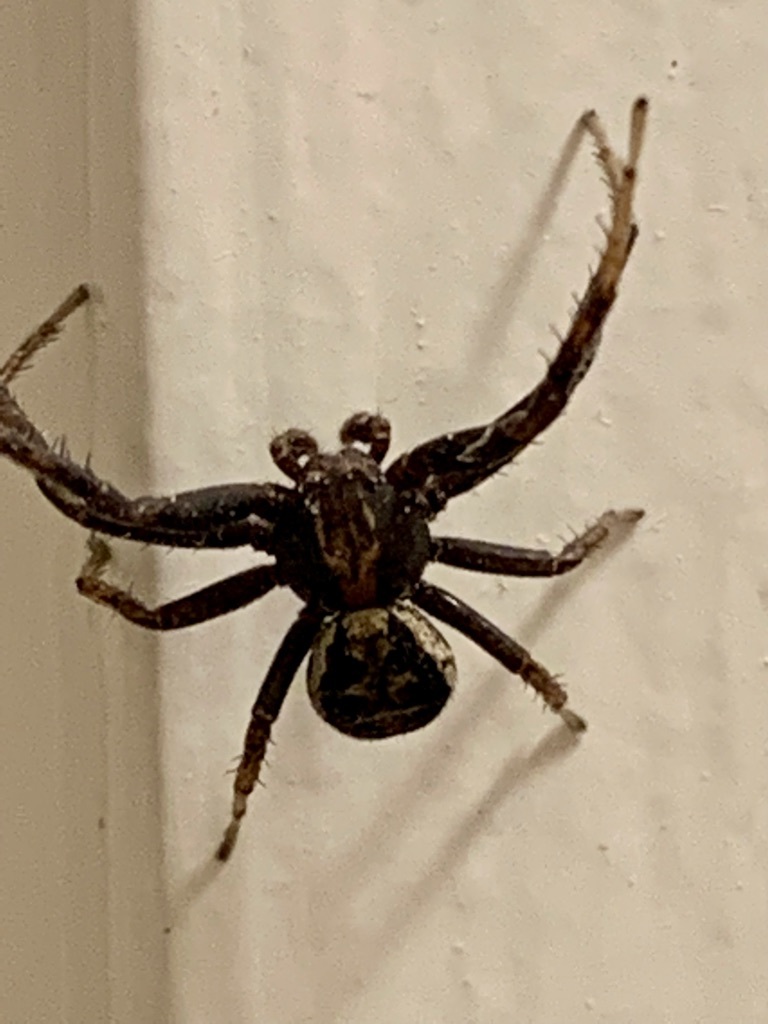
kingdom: Animalia
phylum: Arthropoda
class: Arachnida
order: Araneae
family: Thomisidae
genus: Xysticus
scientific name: Xysticus
